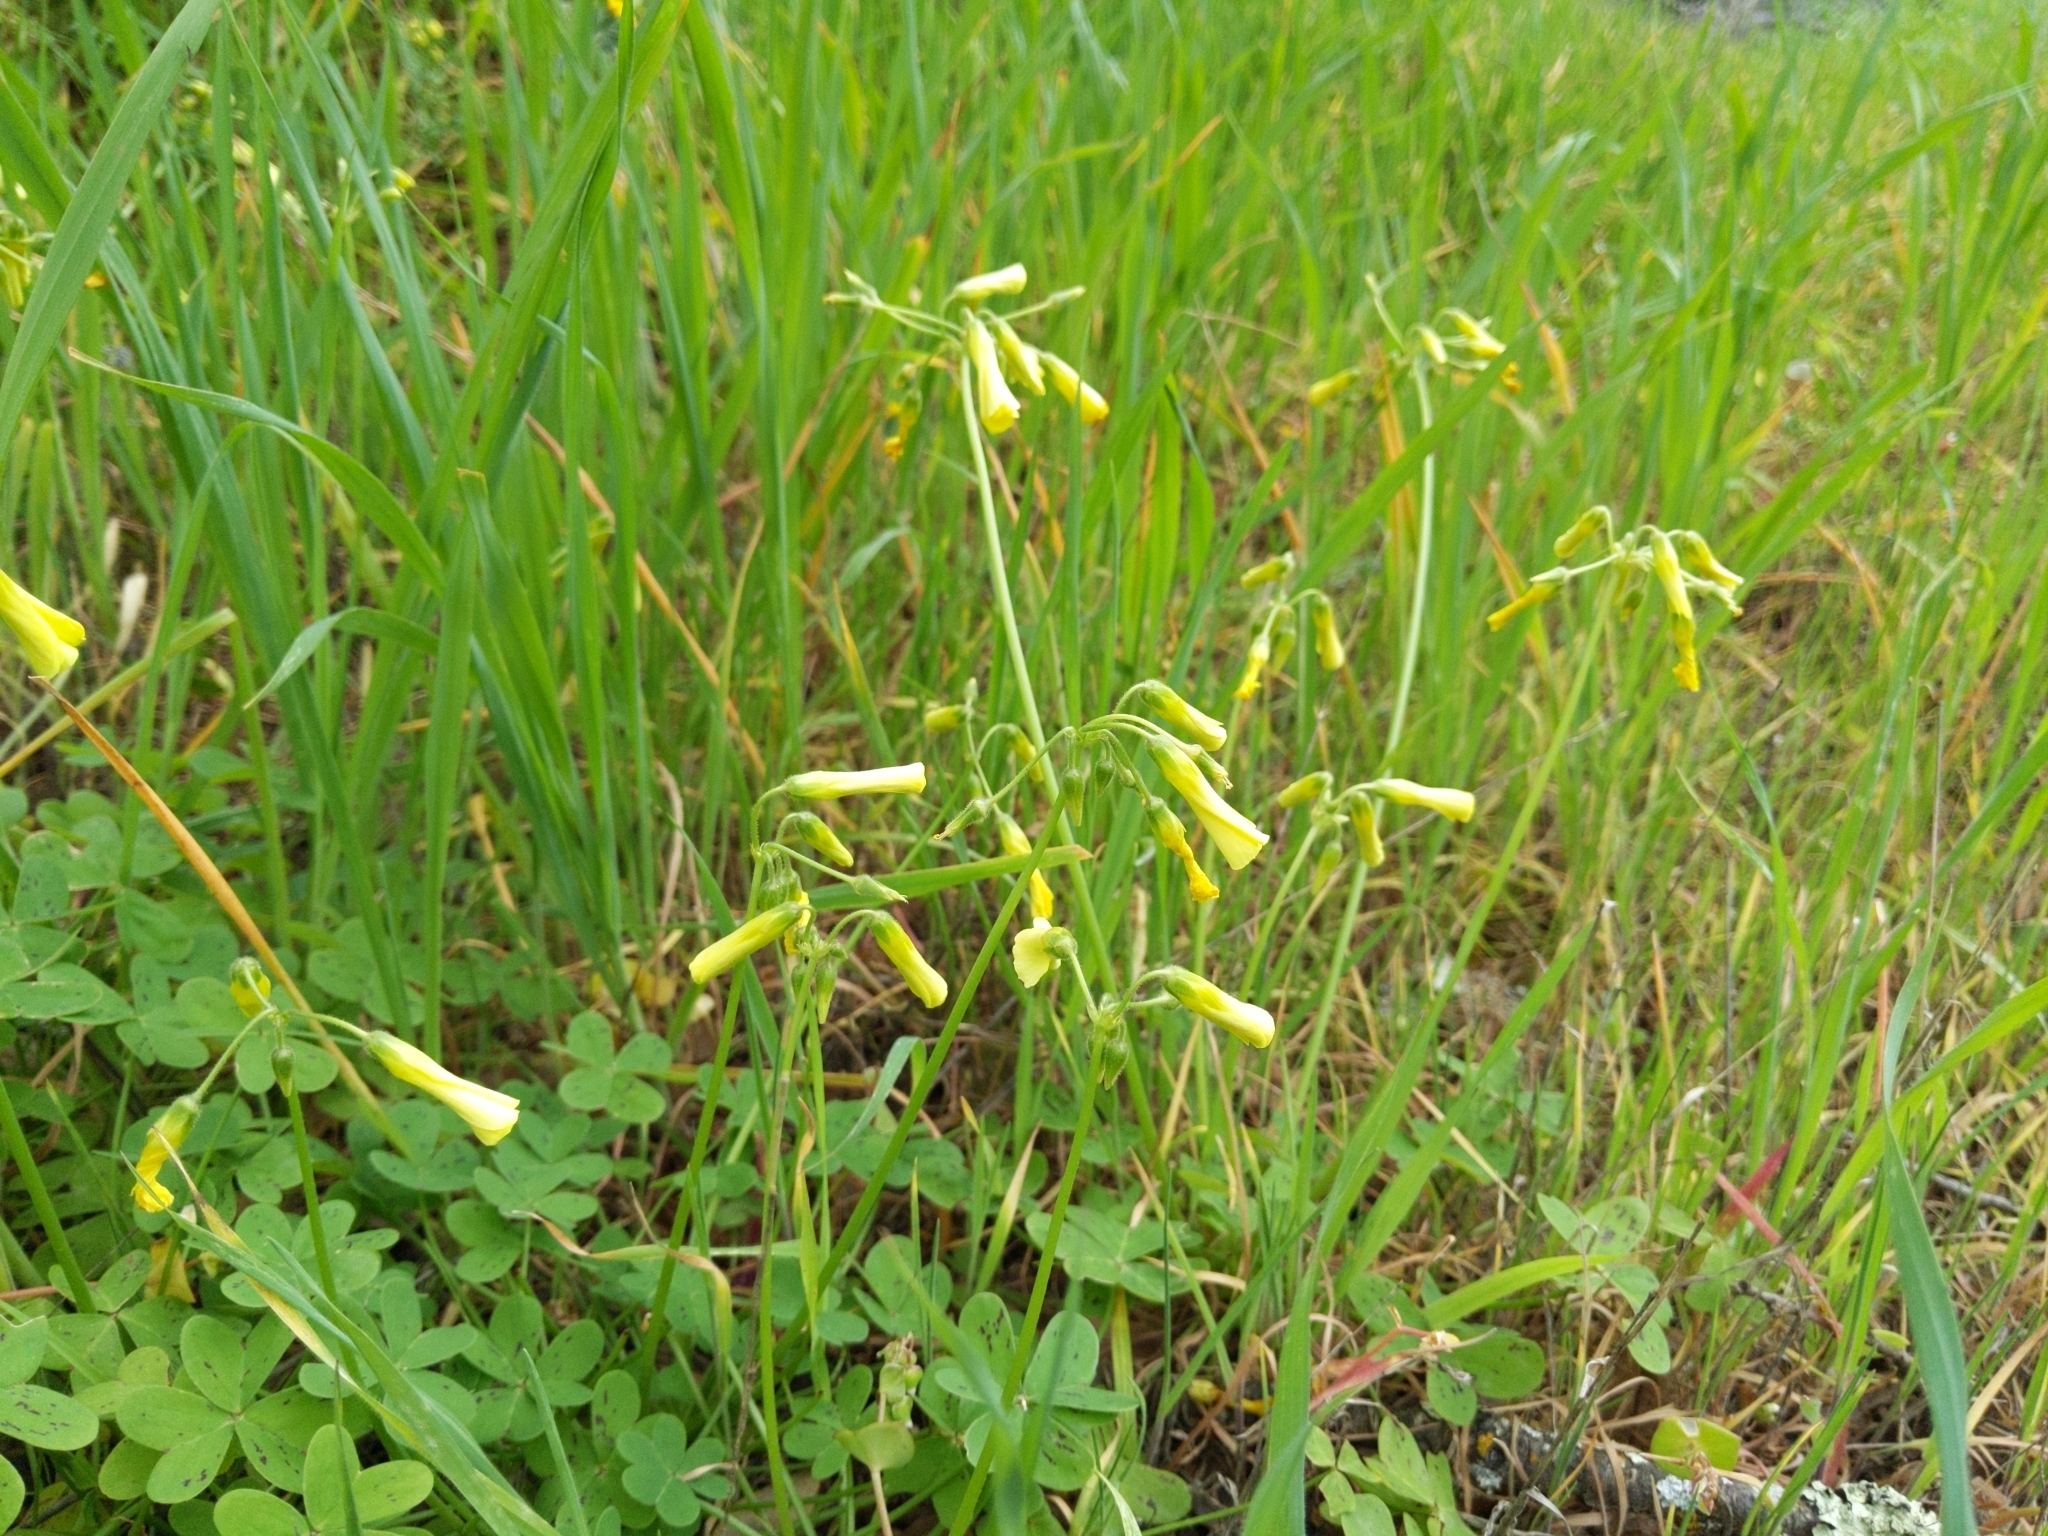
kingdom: Plantae
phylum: Tracheophyta
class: Magnoliopsida
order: Oxalidales
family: Oxalidaceae
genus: Oxalis
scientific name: Oxalis pes-caprae
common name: Bermuda-buttercup
